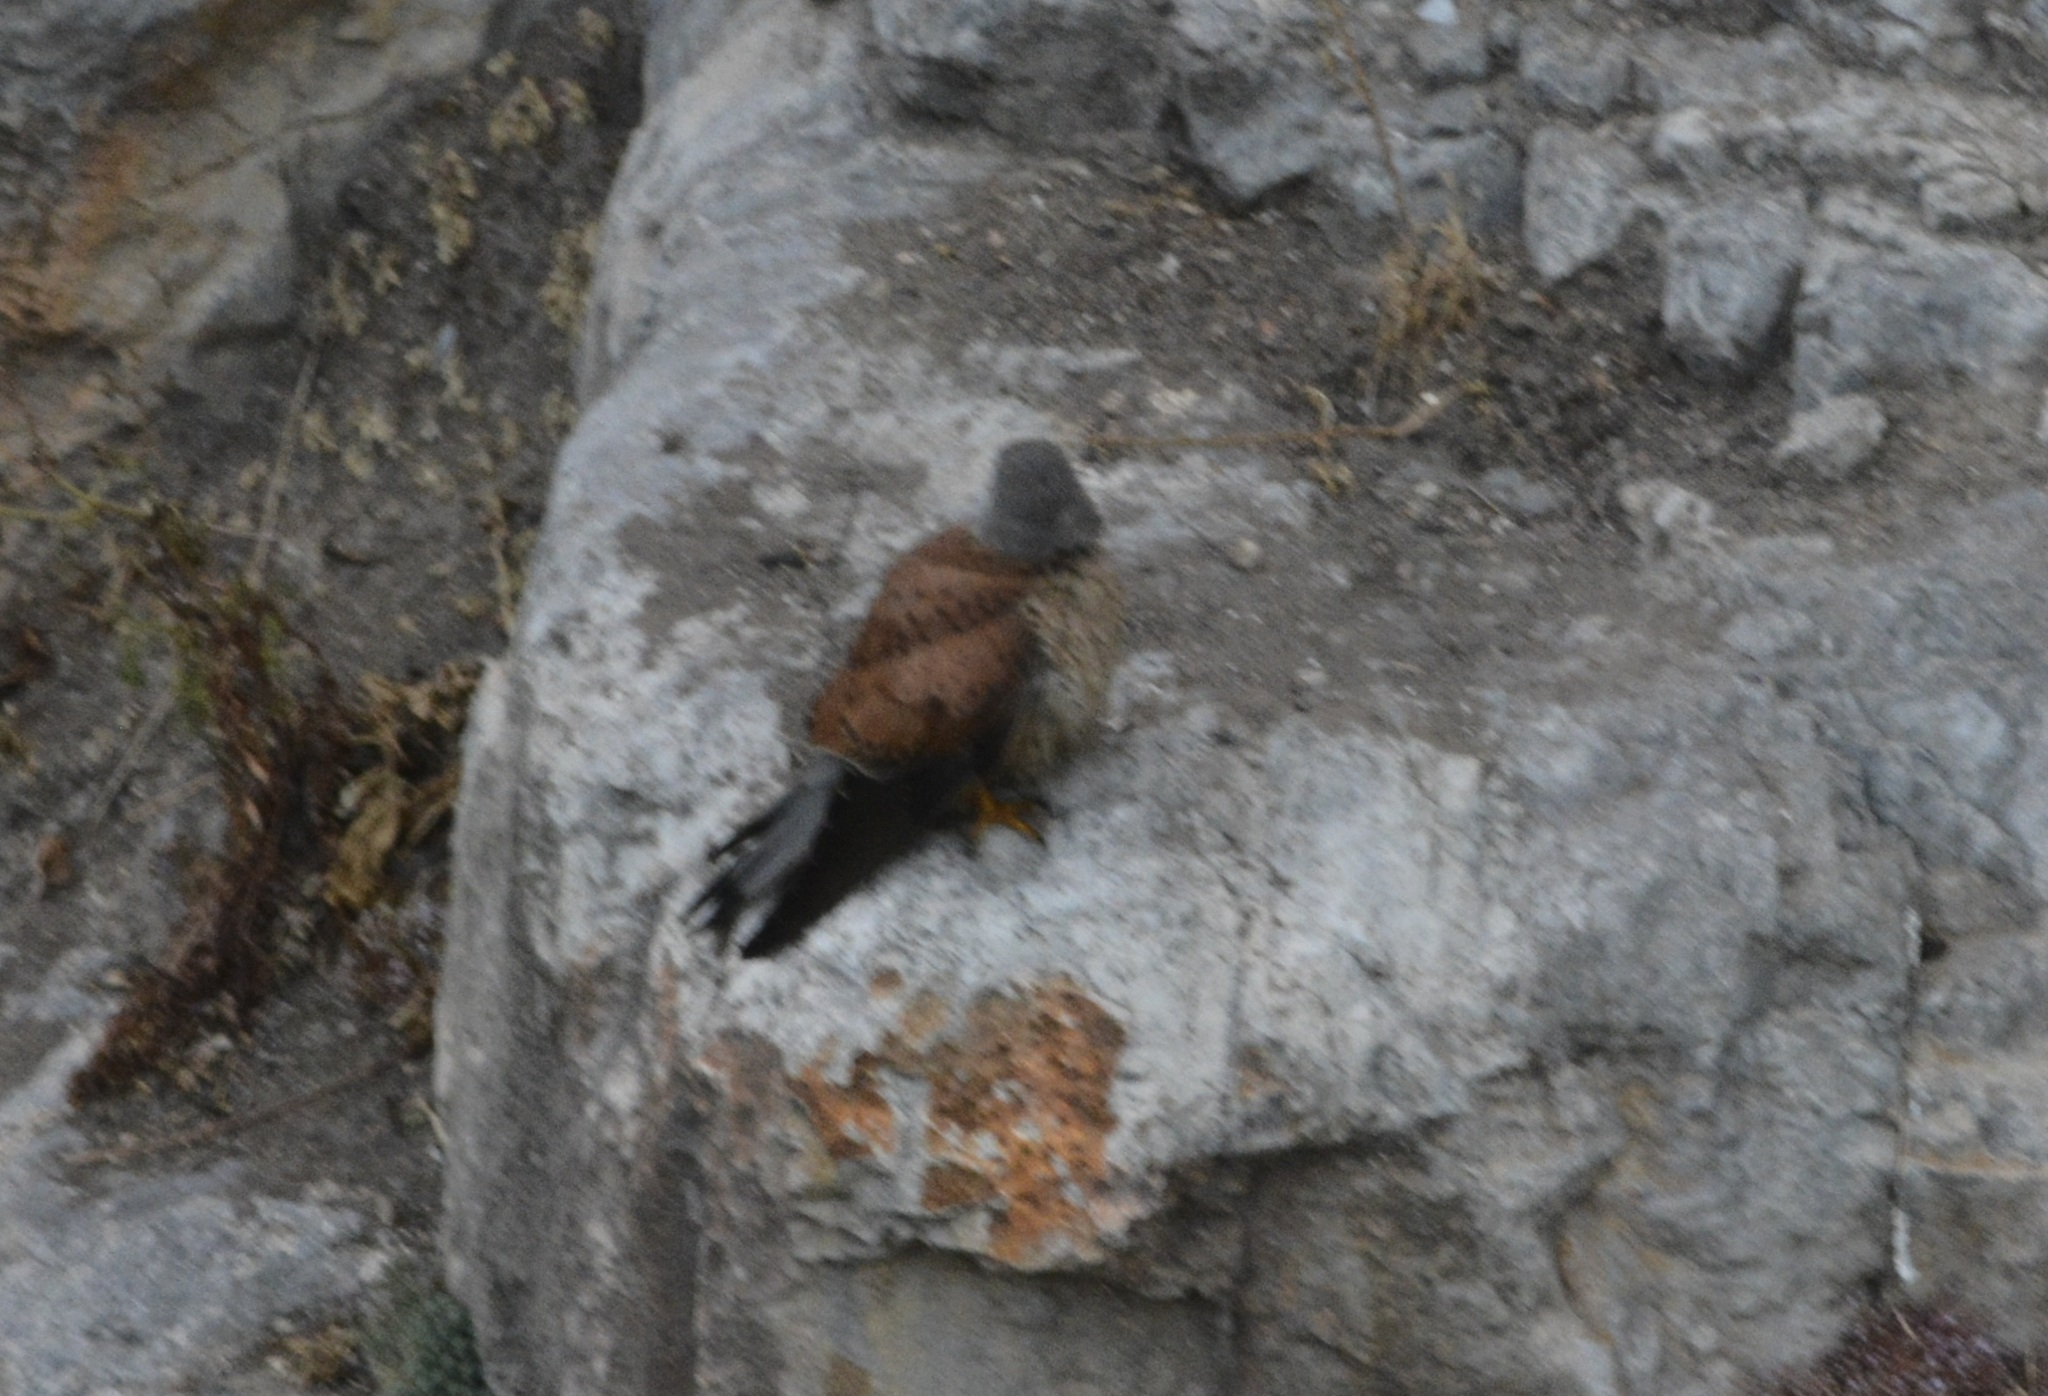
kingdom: Animalia
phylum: Chordata
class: Aves
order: Falconiformes
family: Falconidae
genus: Falco
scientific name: Falco tinnunculus
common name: Common kestrel
